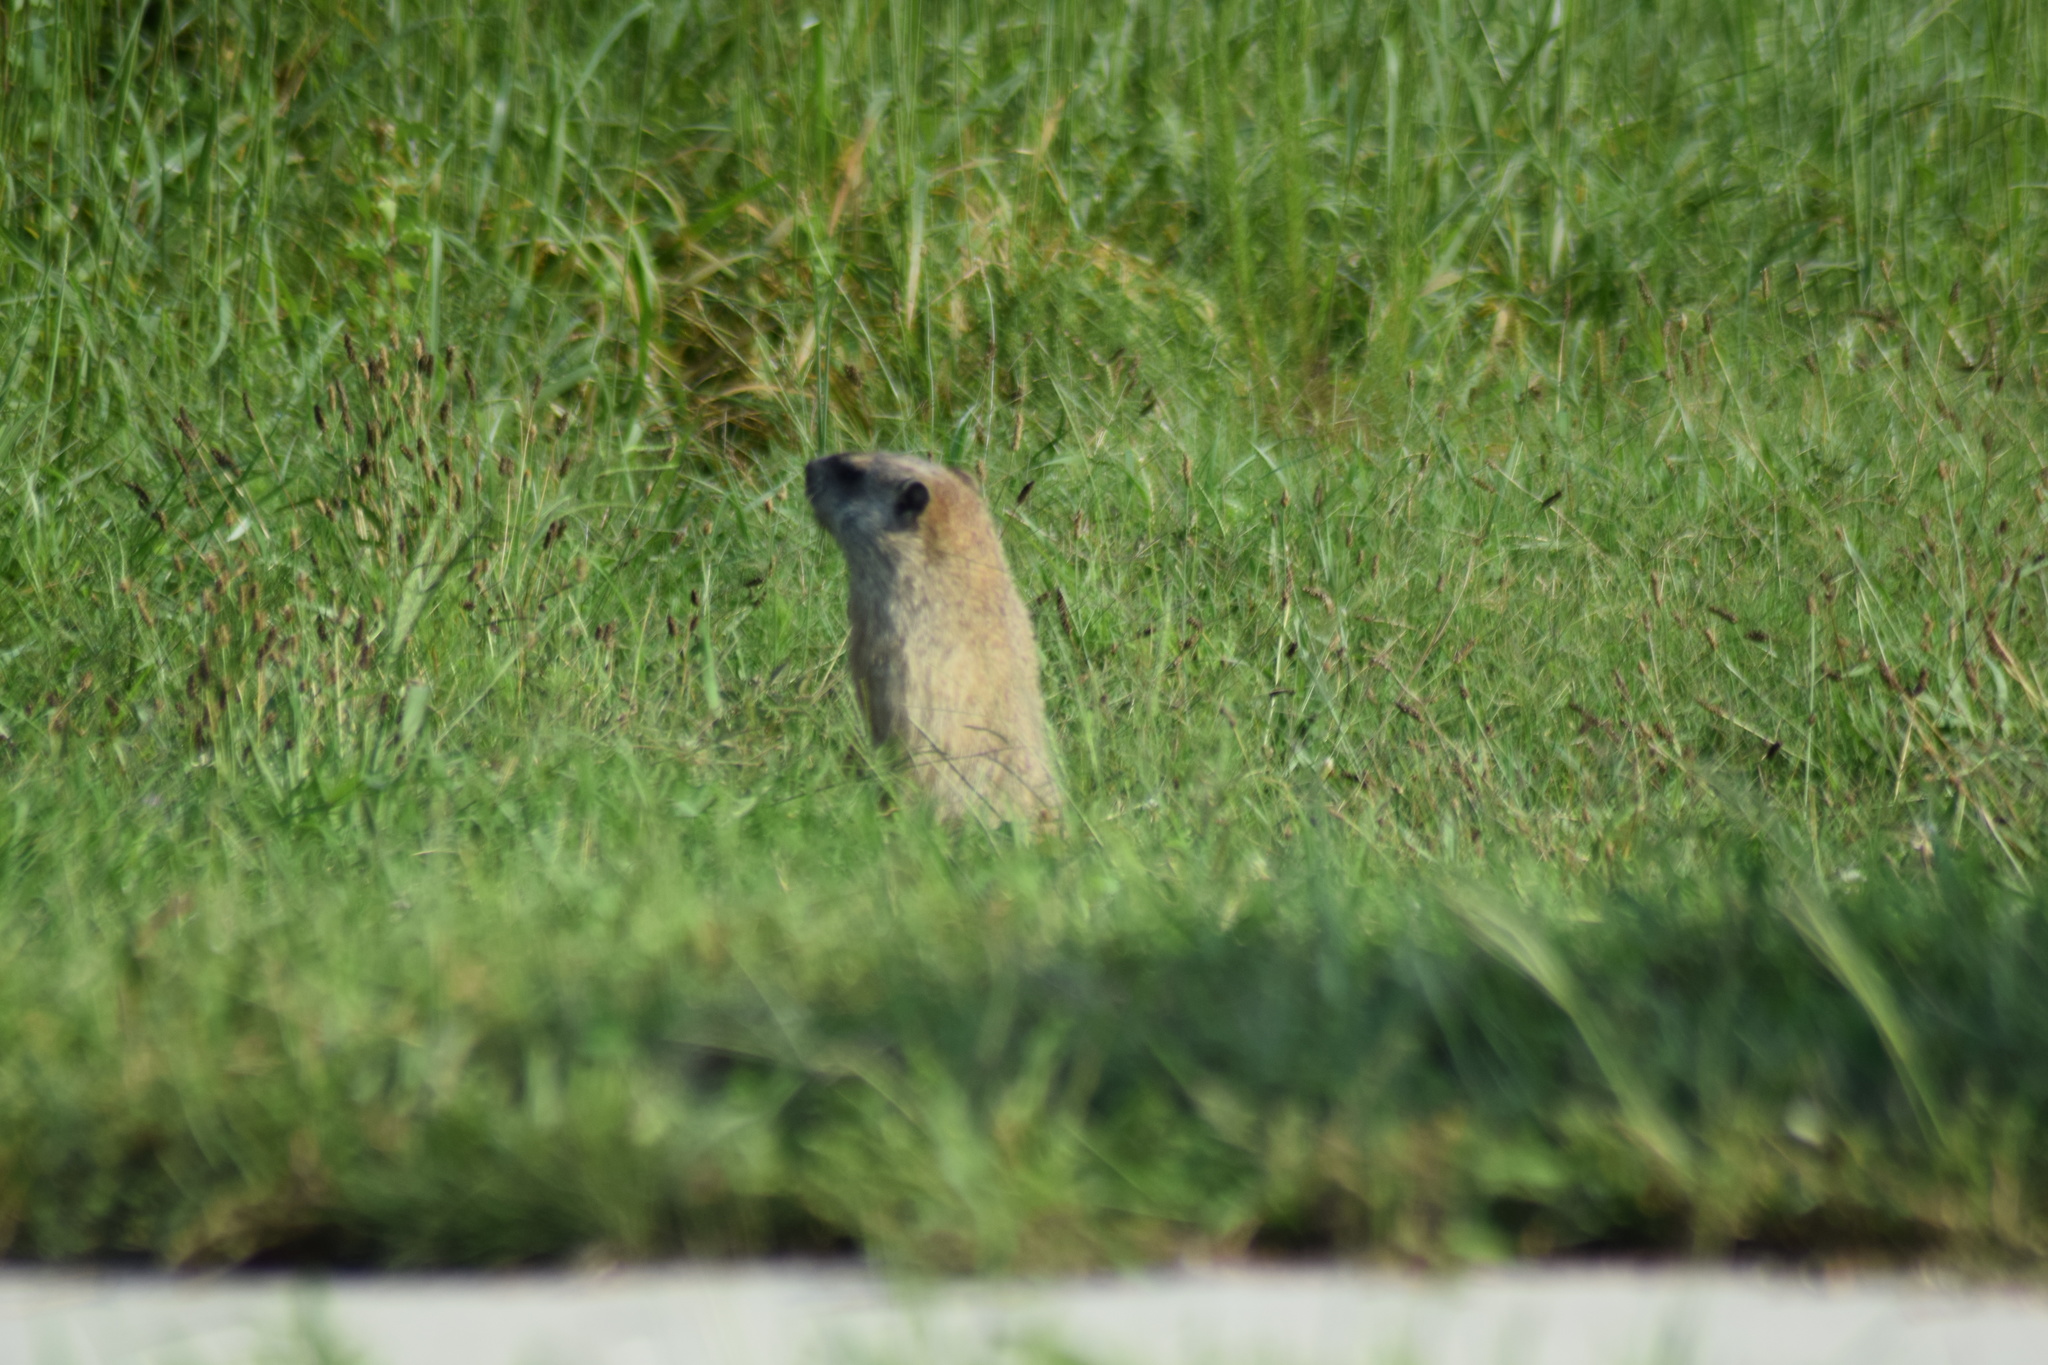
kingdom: Animalia
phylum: Chordata
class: Mammalia
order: Rodentia
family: Sciuridae
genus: Marmota
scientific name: Marmota monax
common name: Groundhog
